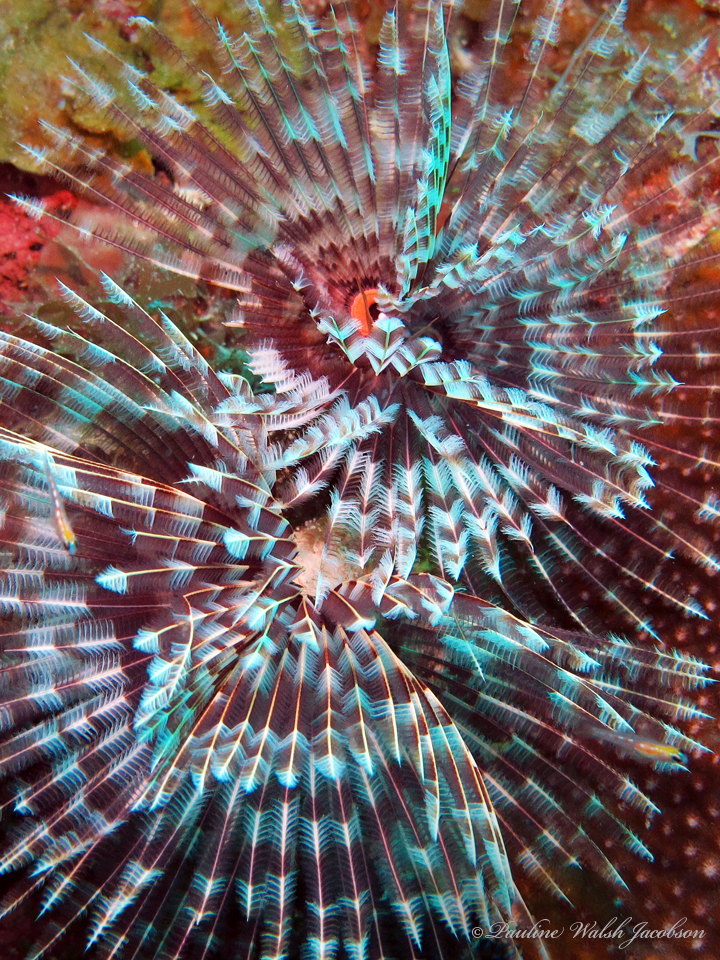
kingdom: Animalia
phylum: Annelida
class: Polychaeta
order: Sabellida
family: Sabellidae
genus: Sabellastarte
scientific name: Sabellastarte magnifica
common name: Giant feather-duster worm
